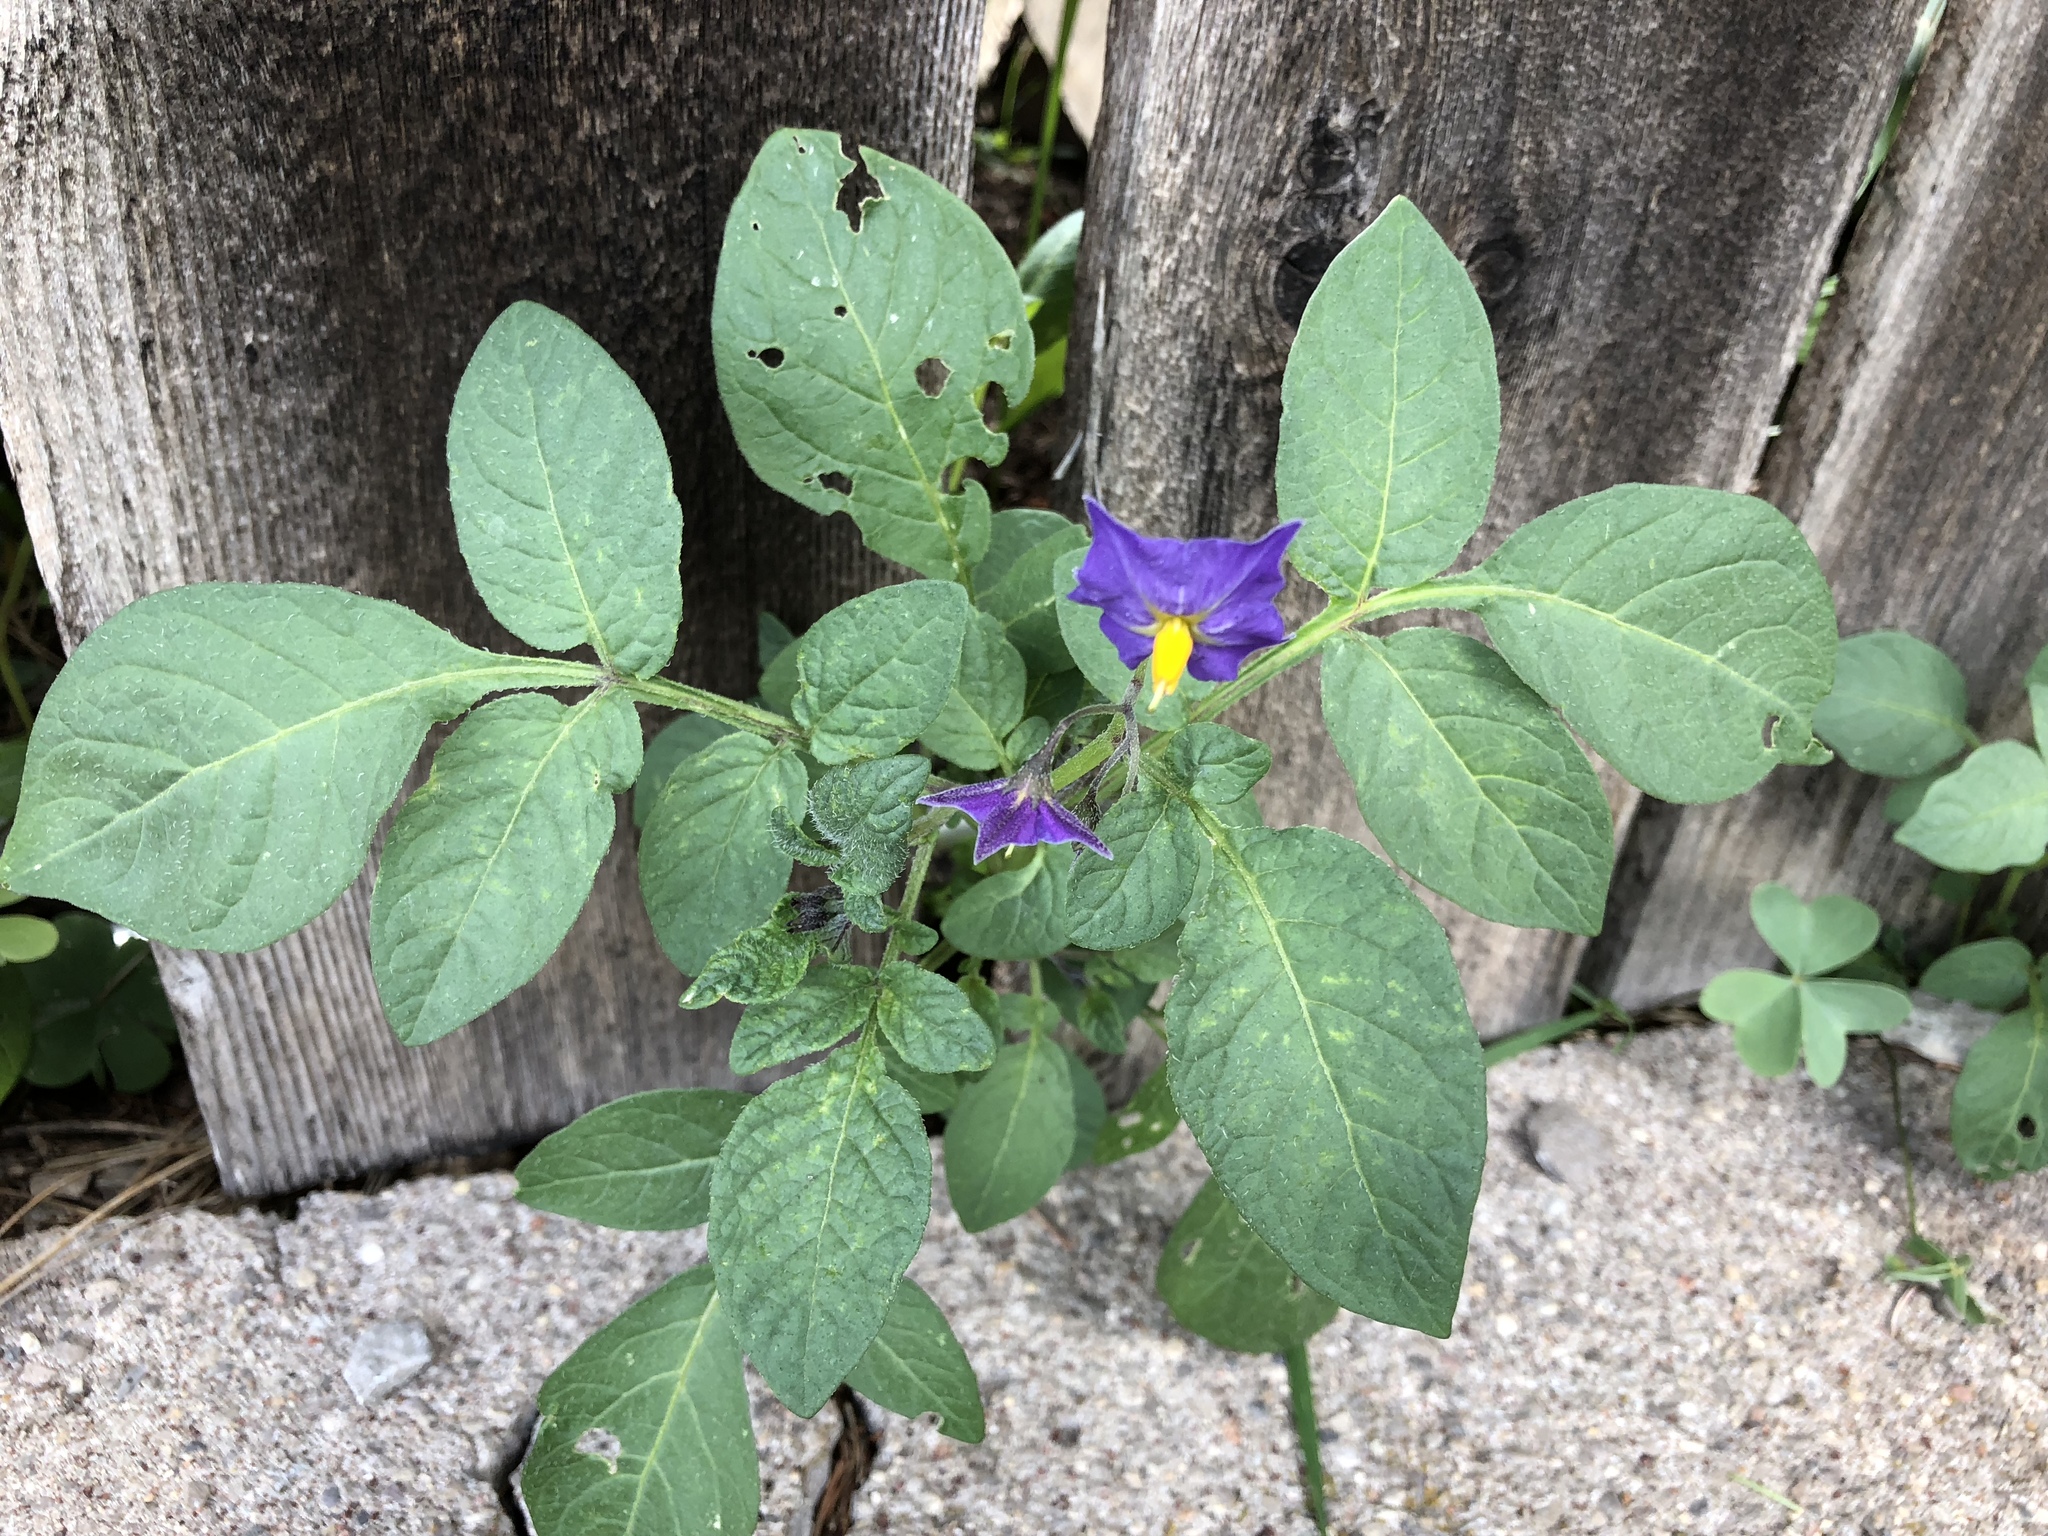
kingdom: Plantae
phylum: Tracheophyta
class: Magnoliopsida
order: Solanales
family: Solanaceae
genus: Solanum
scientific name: Solanum stoloniferum
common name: Fendler's nighshade
